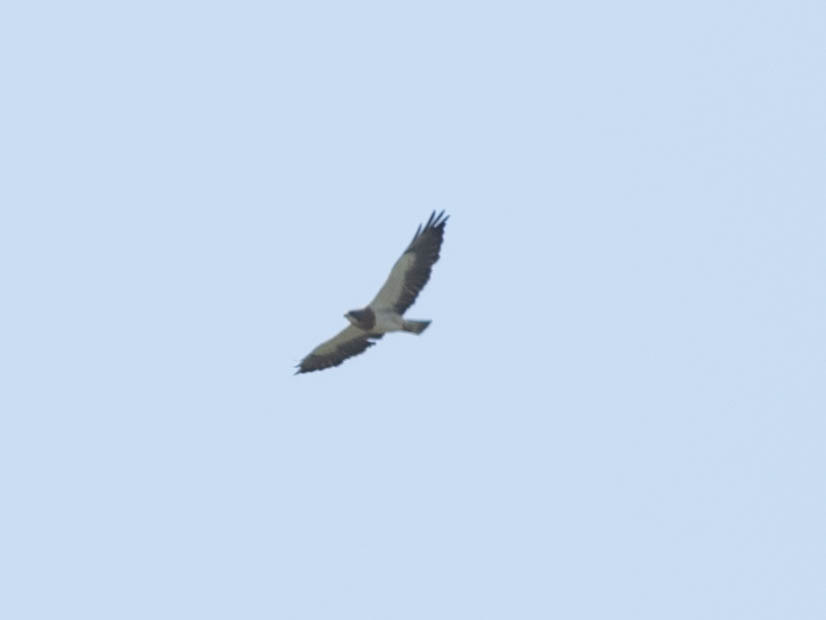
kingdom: Animalia
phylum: Chordata
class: Aves
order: Accipitriformes
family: Accipitridae
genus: Buteo
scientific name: Buteo swainsoni
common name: Swainson's hawk
